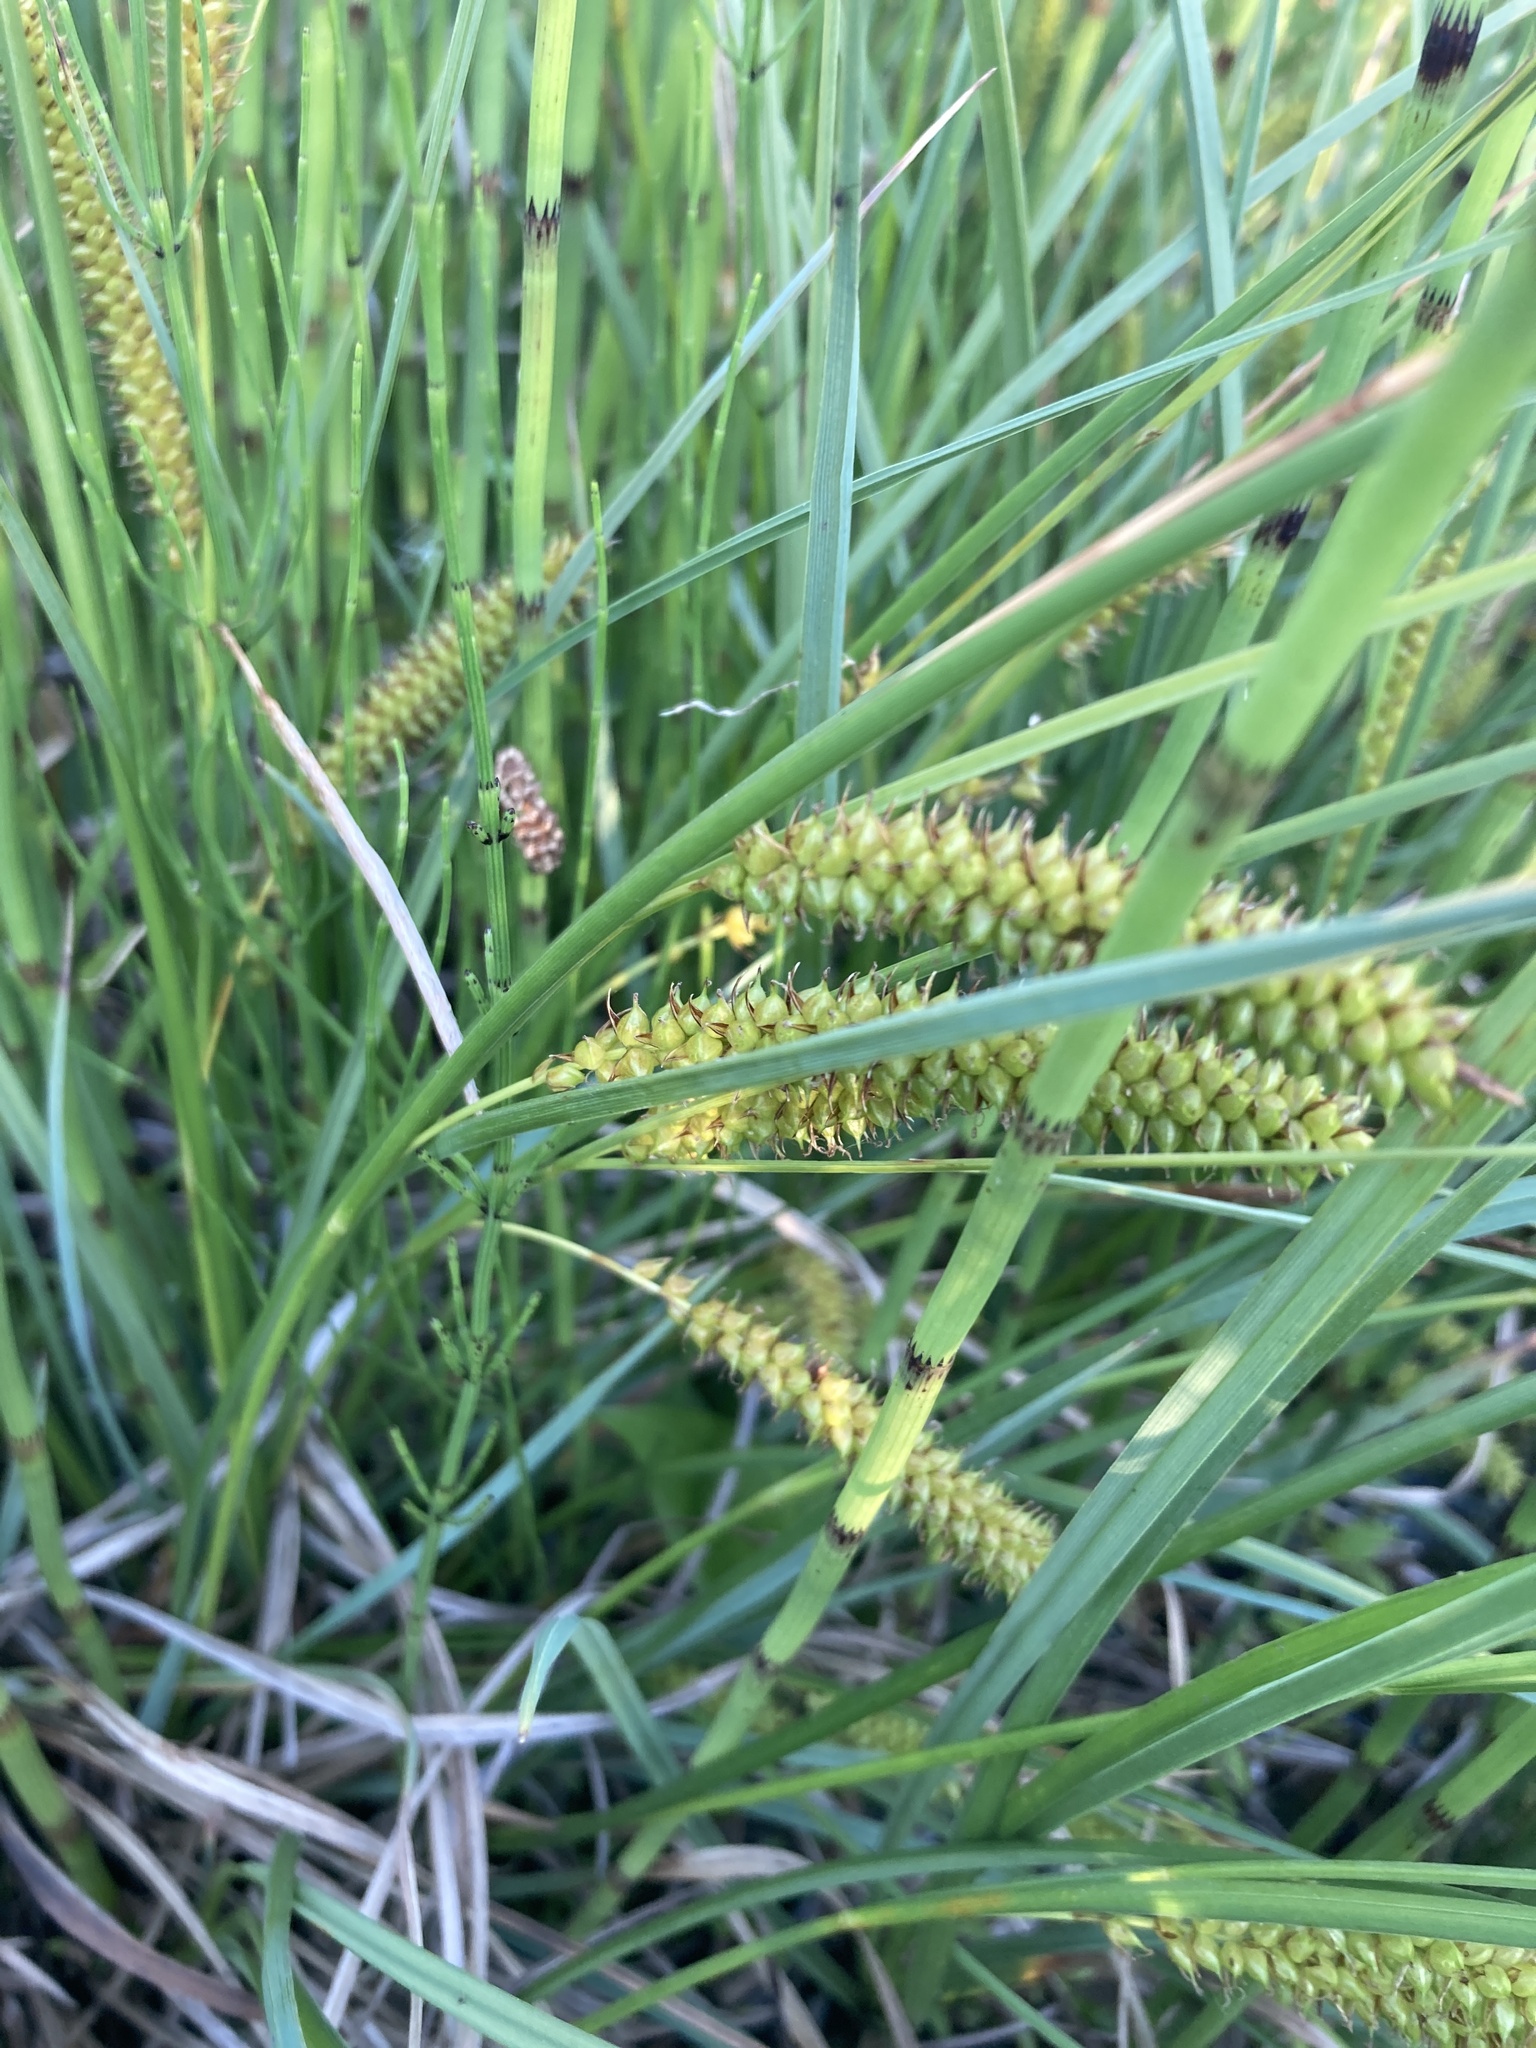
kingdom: Plantae
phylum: Tracheophyta
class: Liliopsida
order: Poales
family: Cyperaceae
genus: Carex
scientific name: Carex rostrata
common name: Bottle sedge
